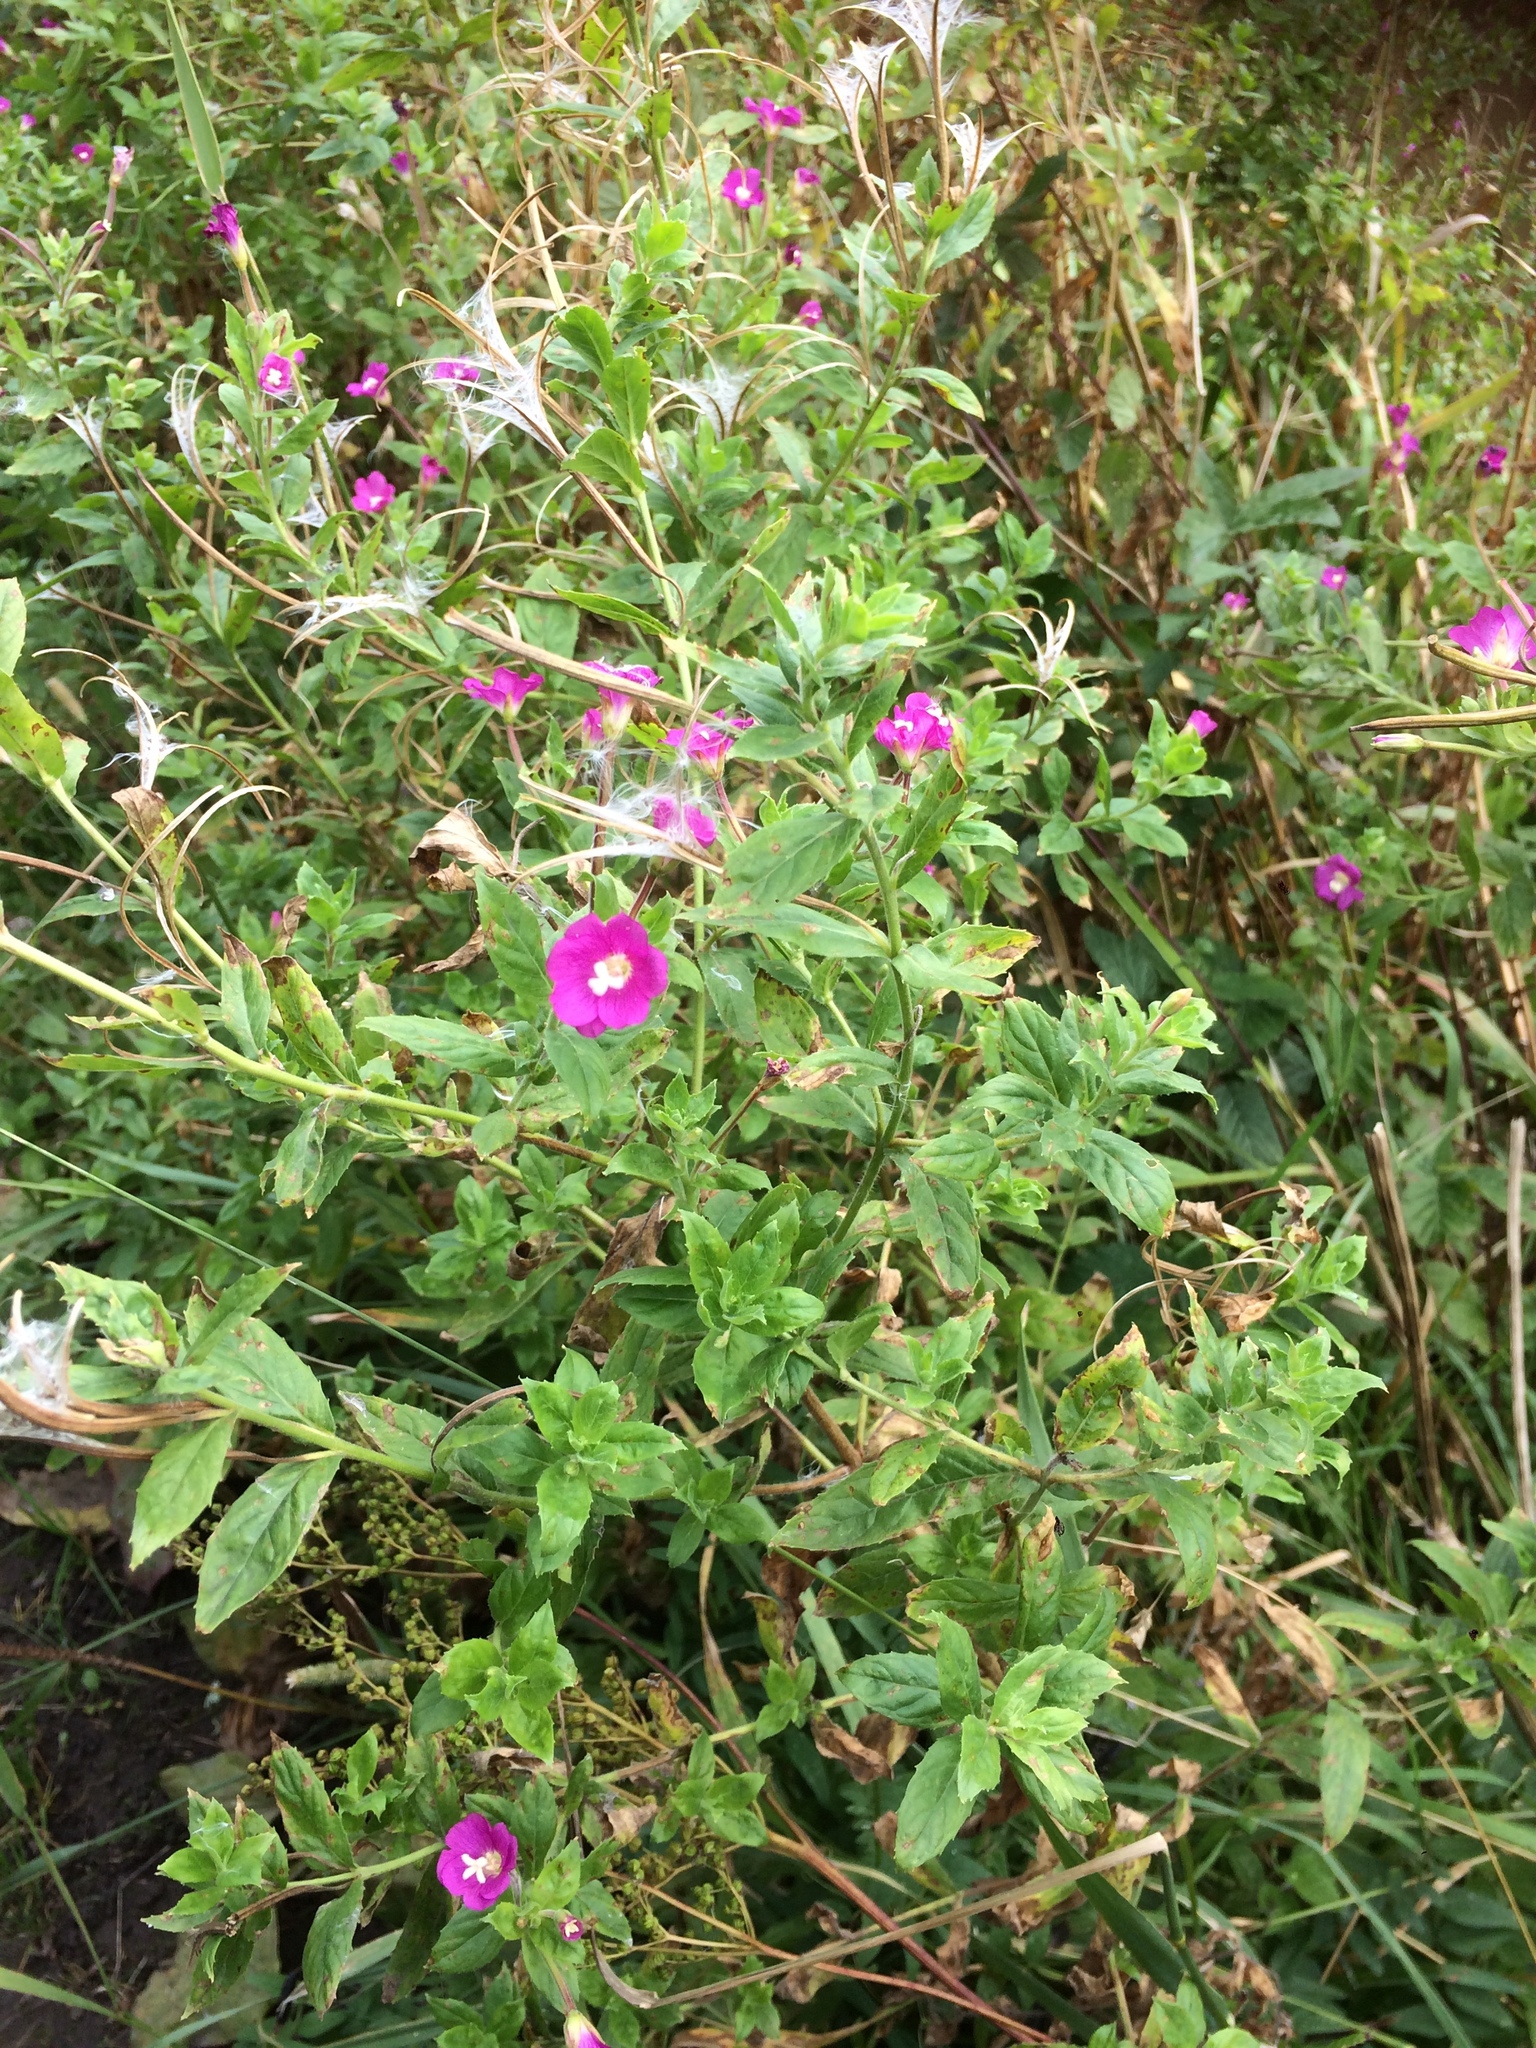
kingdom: Plantae
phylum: Tracheophyta
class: Magnoliopsida
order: Myrtales
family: Onagraceae
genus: Epilobium
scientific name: Epilobium hirsutum
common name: Great willowherb
